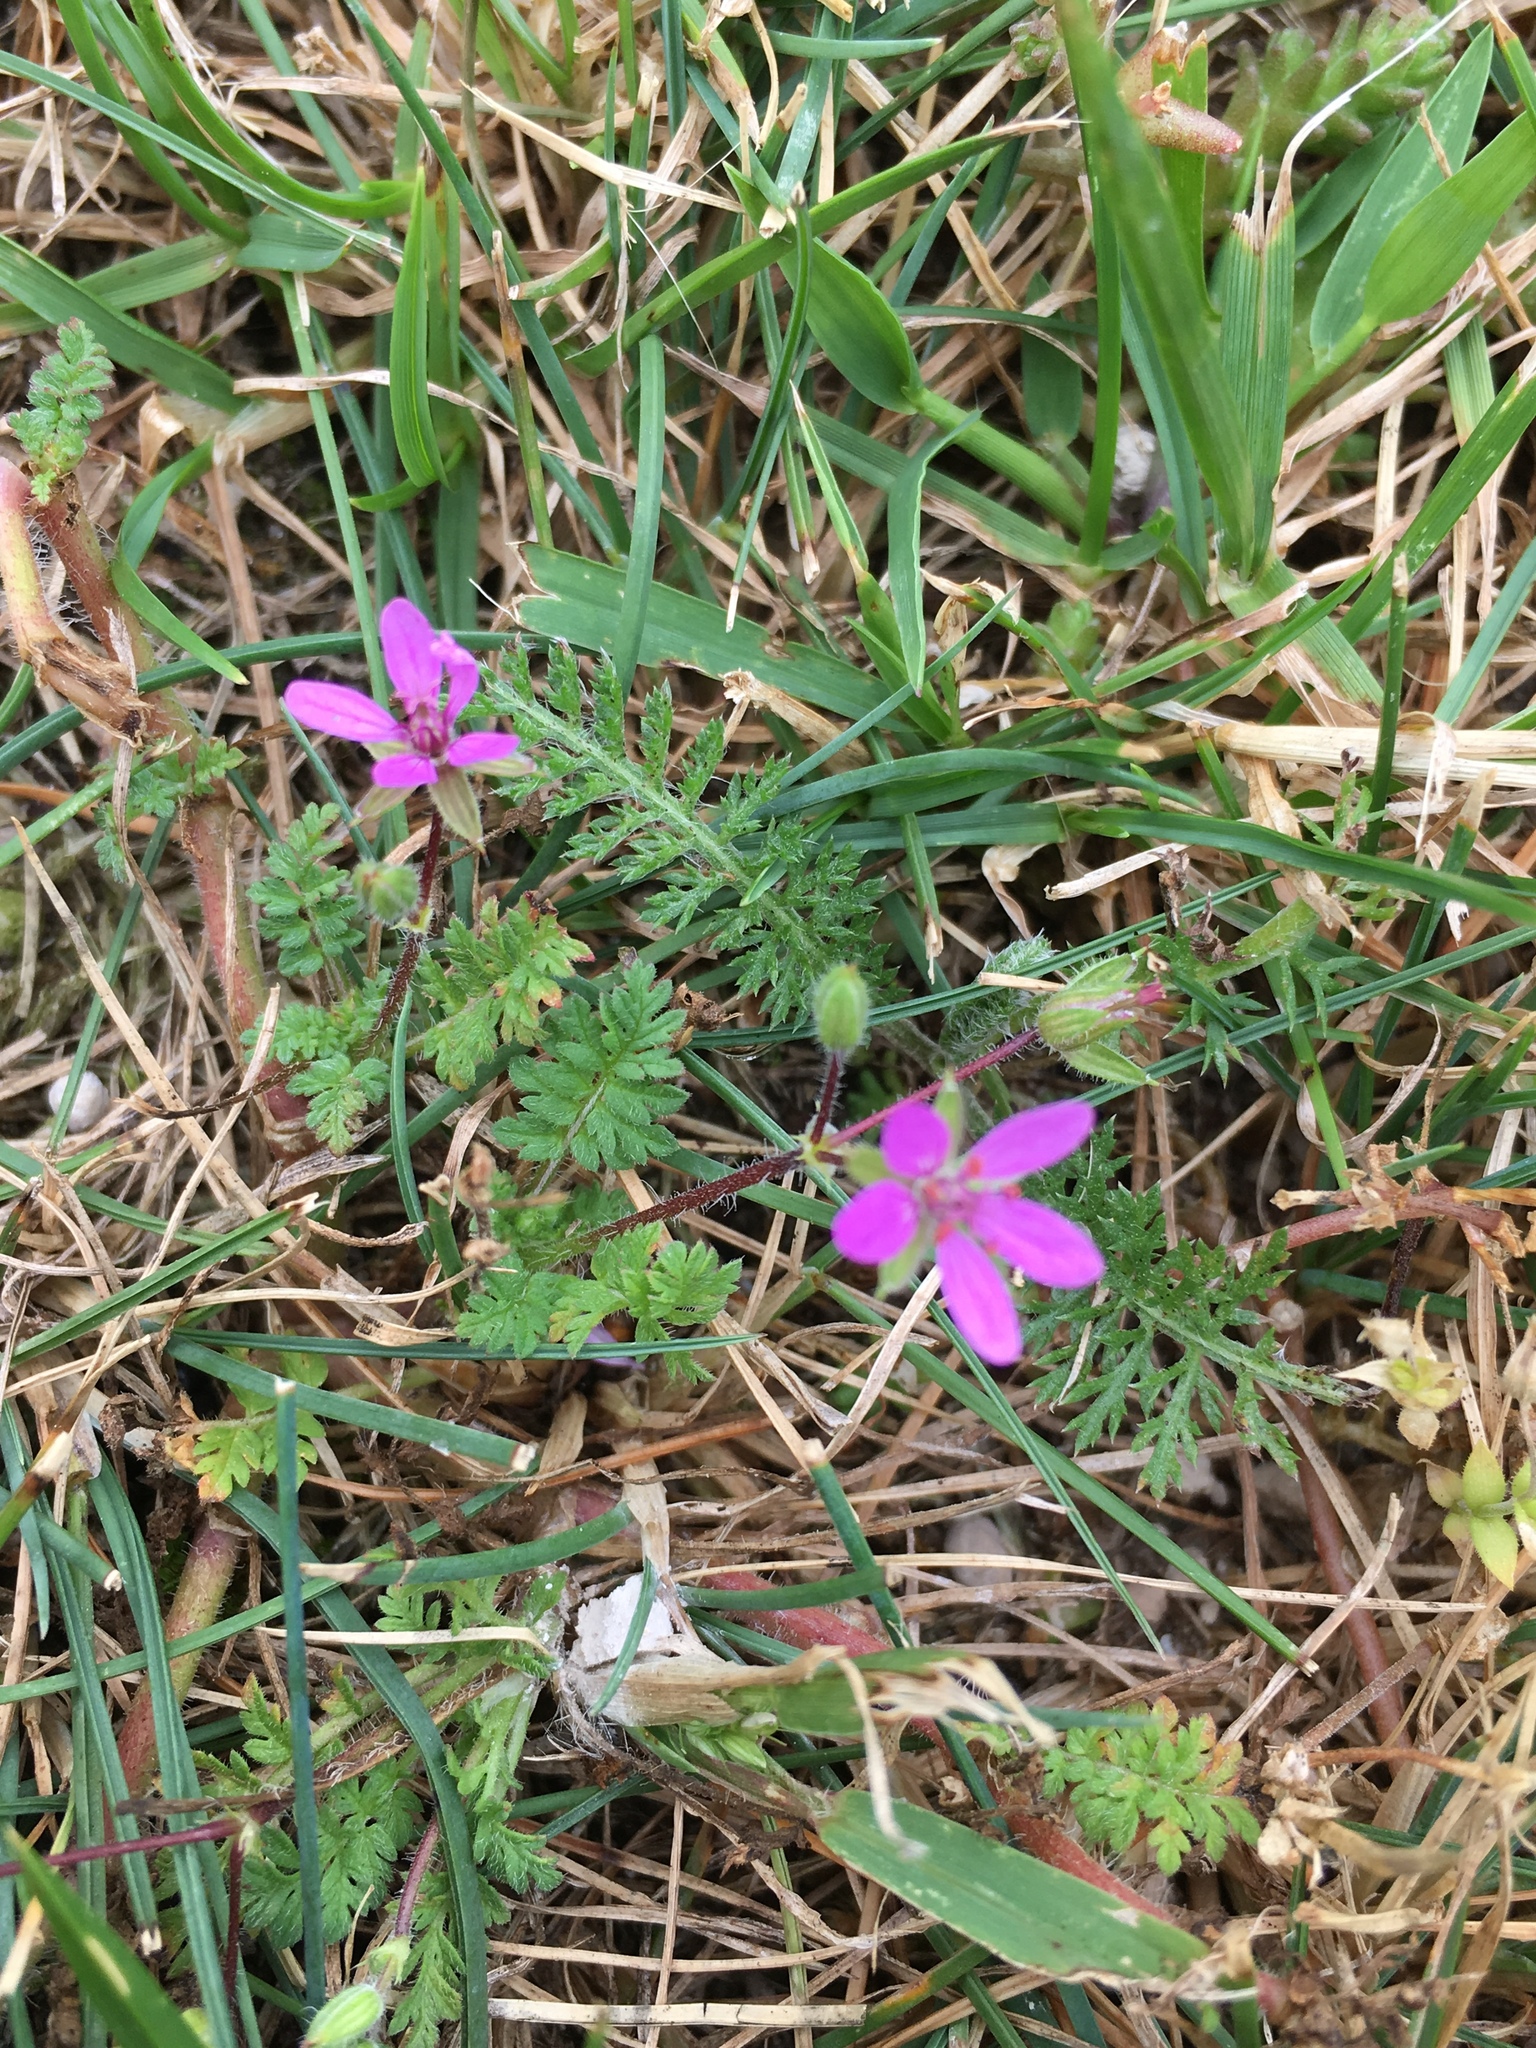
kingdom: Plantae
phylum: Tracheophyta
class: Magnoliopsida
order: Geraniales
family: Geraniaceae
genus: Erodium
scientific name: Erodium cicutarium
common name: Common stork's-bill
